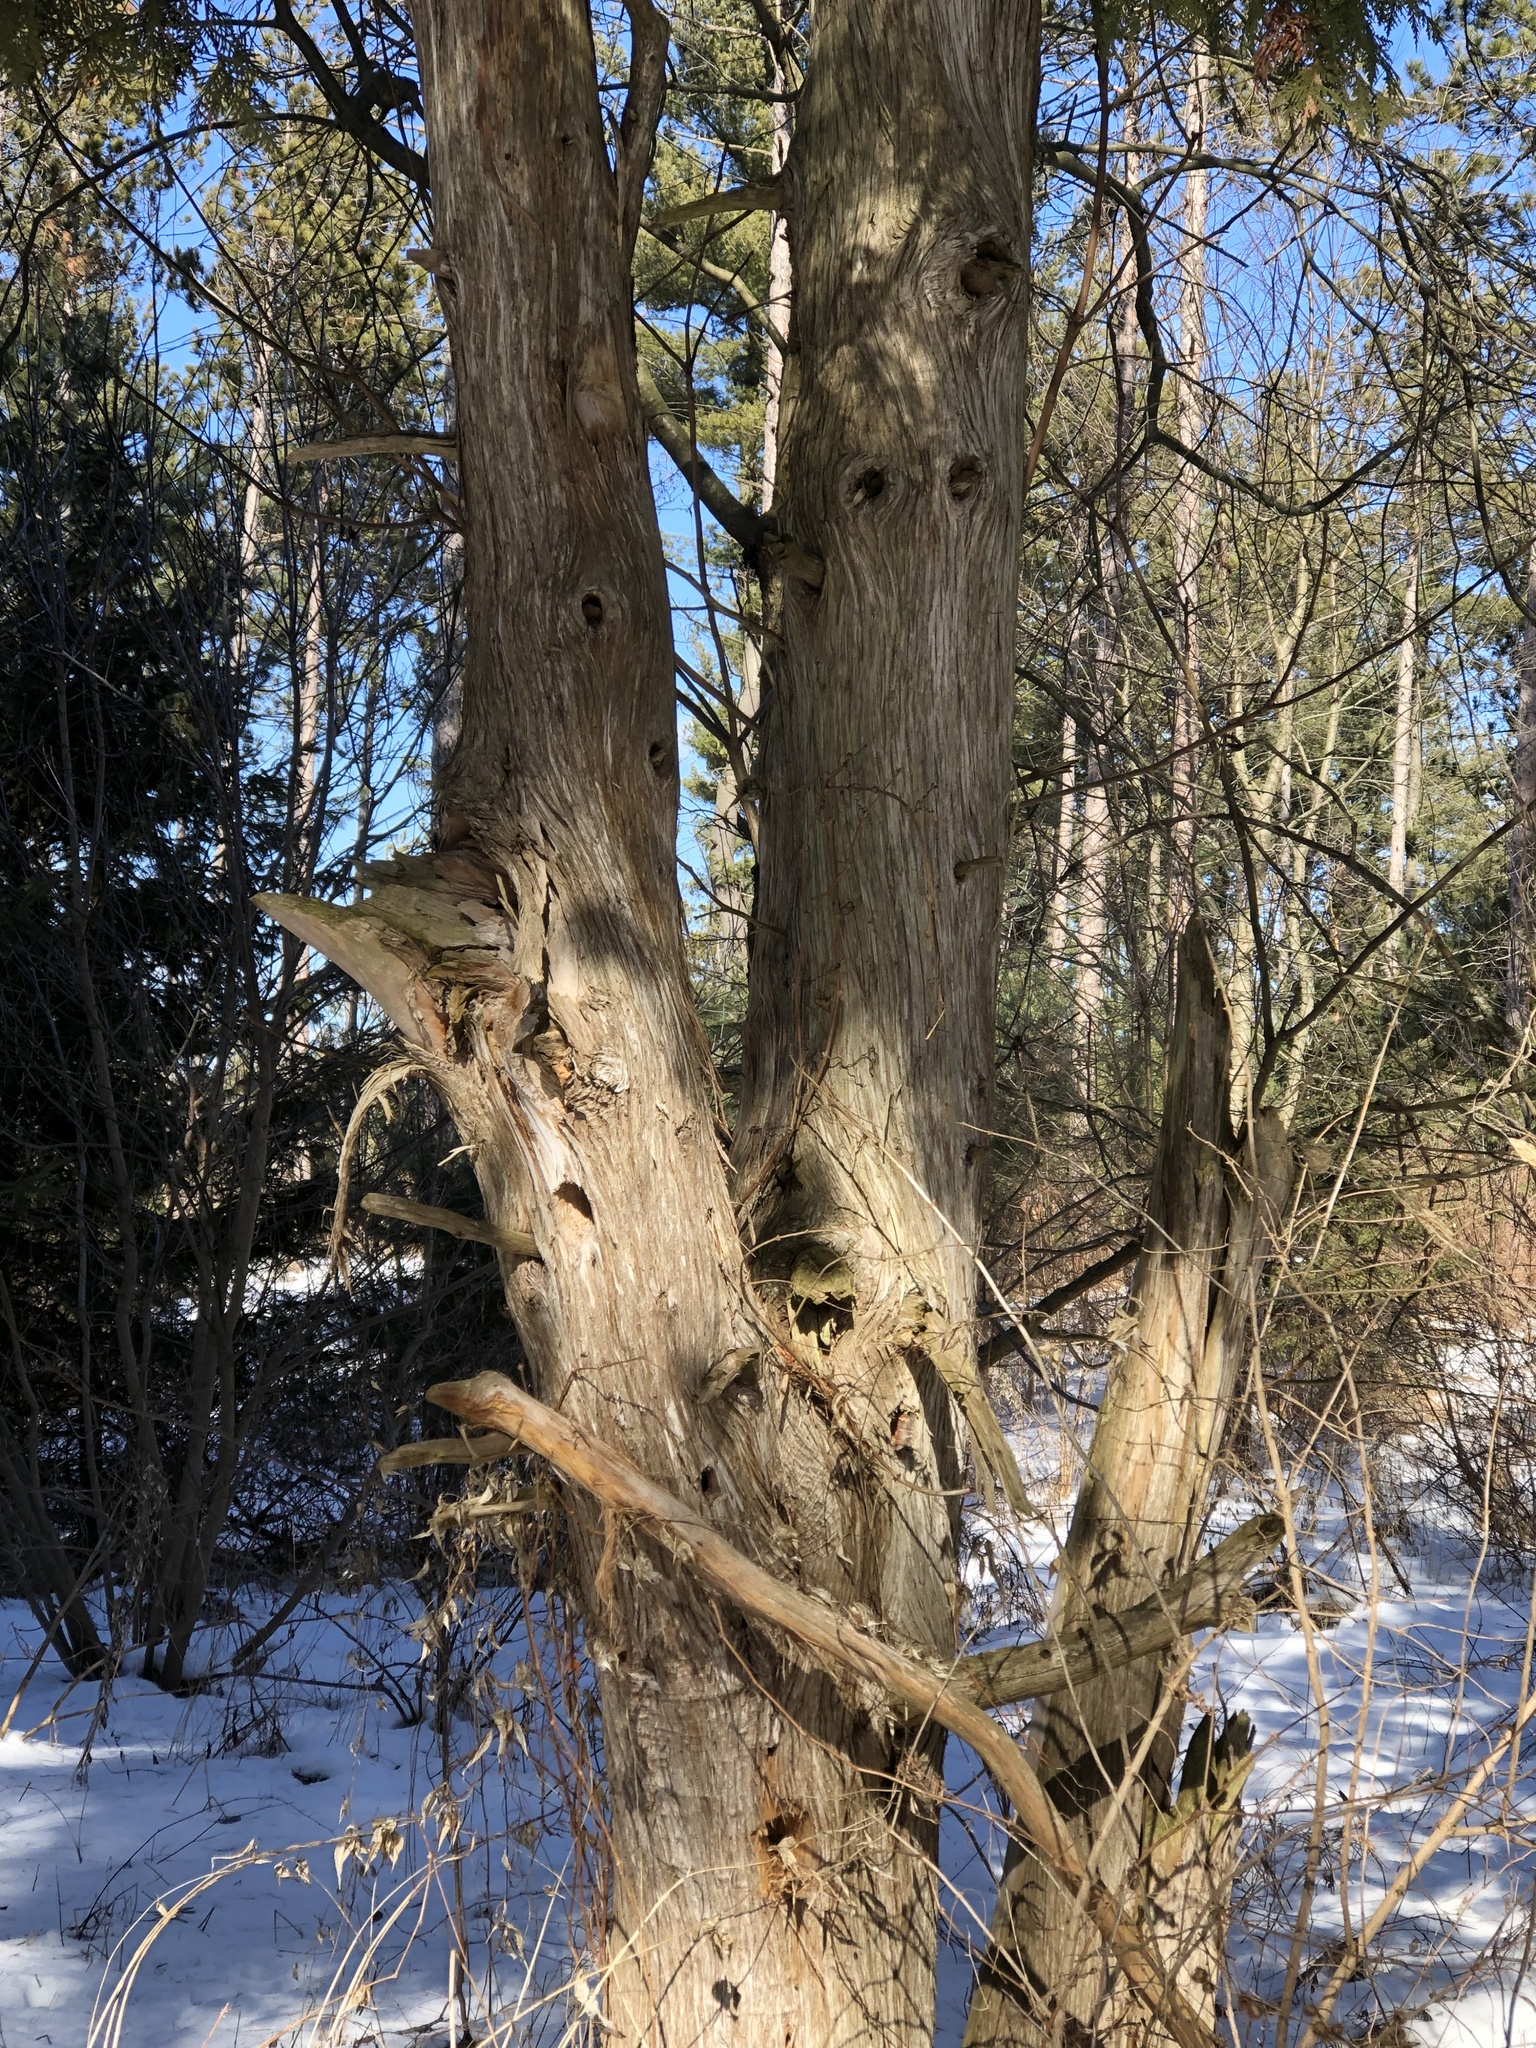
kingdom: Plantae
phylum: Tracheophyta
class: Pinopsida
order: Pinales
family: Cupressaceae
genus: Thuja
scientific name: Thuja occidentalis
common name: Northern white-cedar
